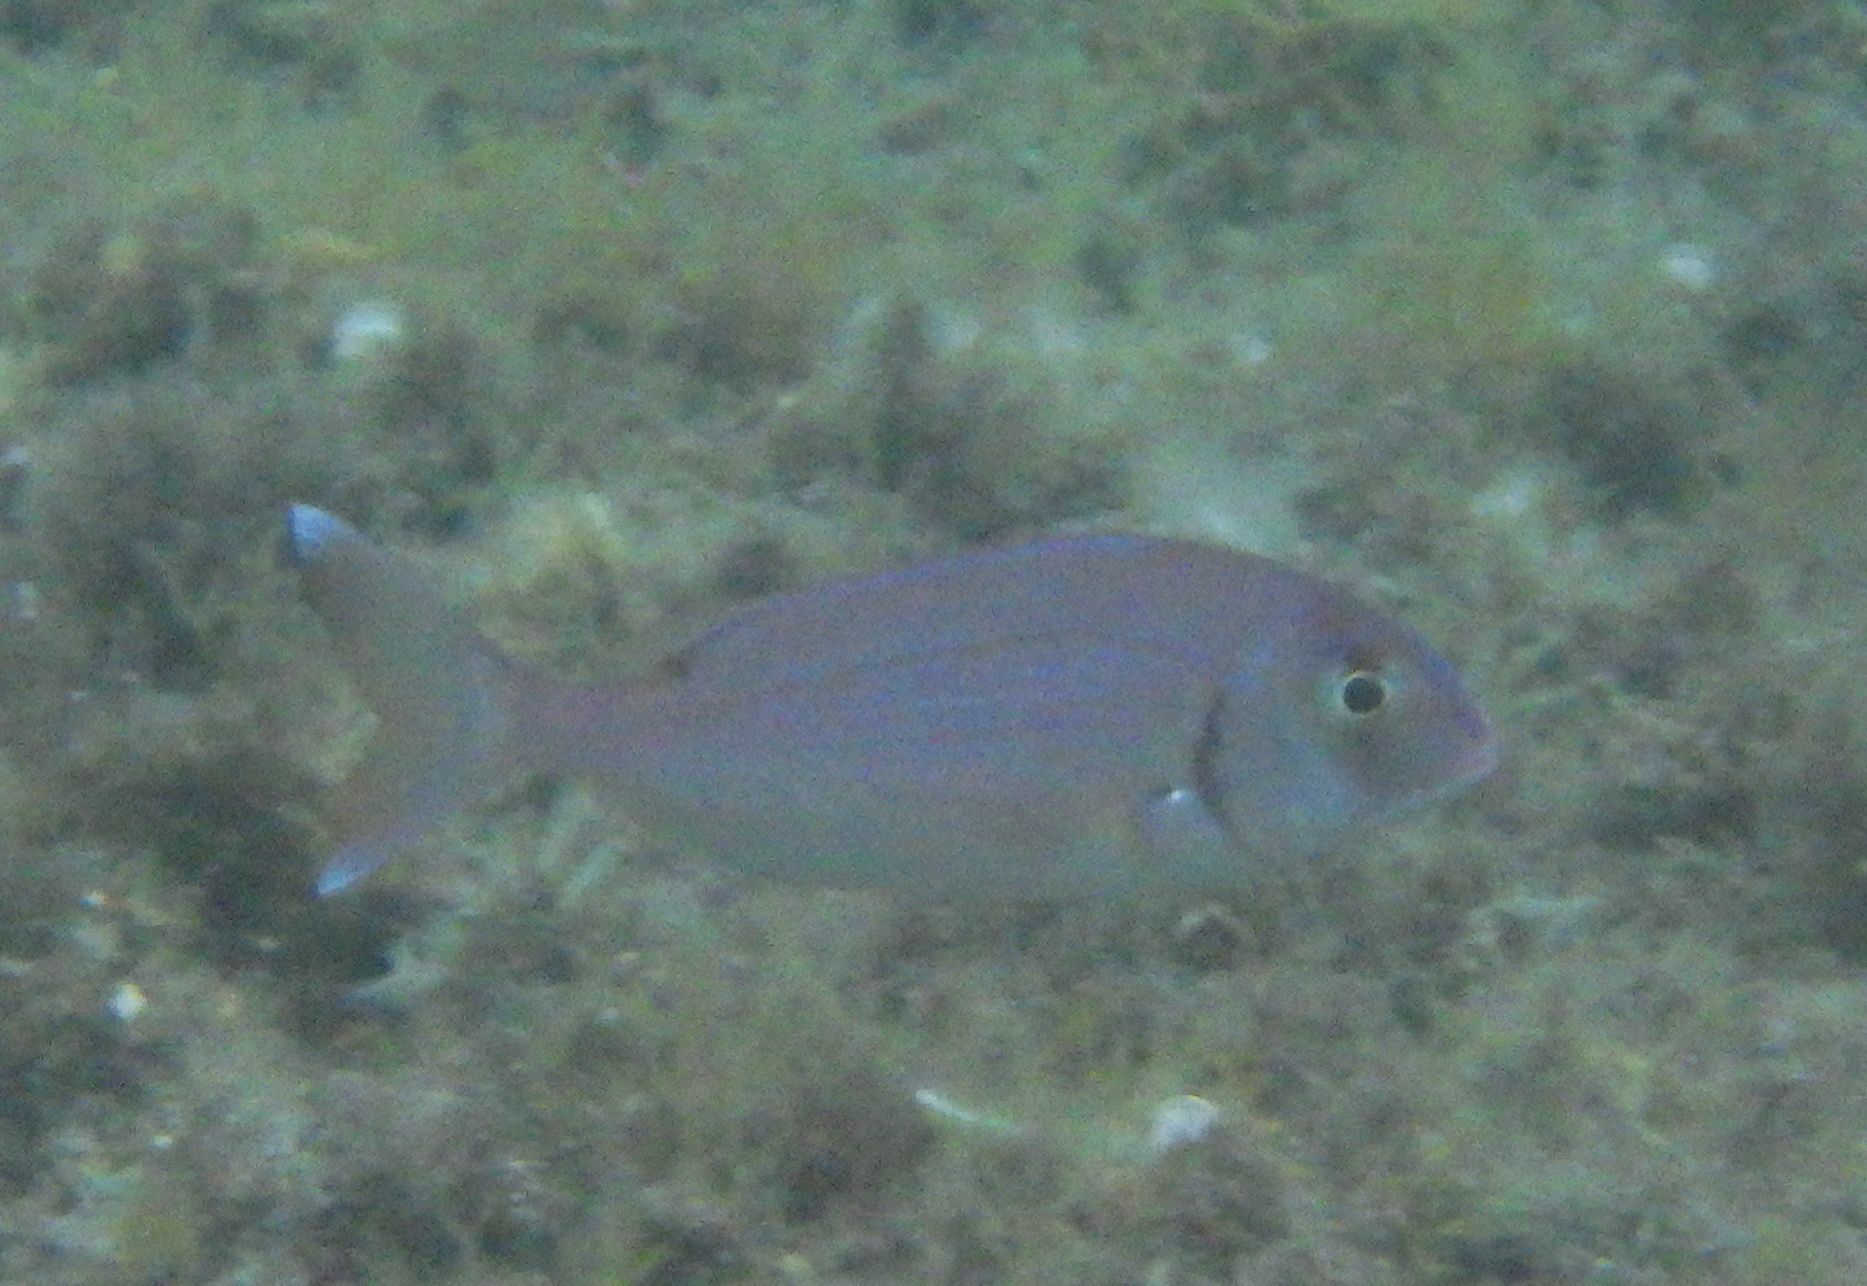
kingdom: Animalia
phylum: Chordata
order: Perciformes
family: Sparidae
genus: Pagrus
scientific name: Pagrus pagrus
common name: Red porgy
